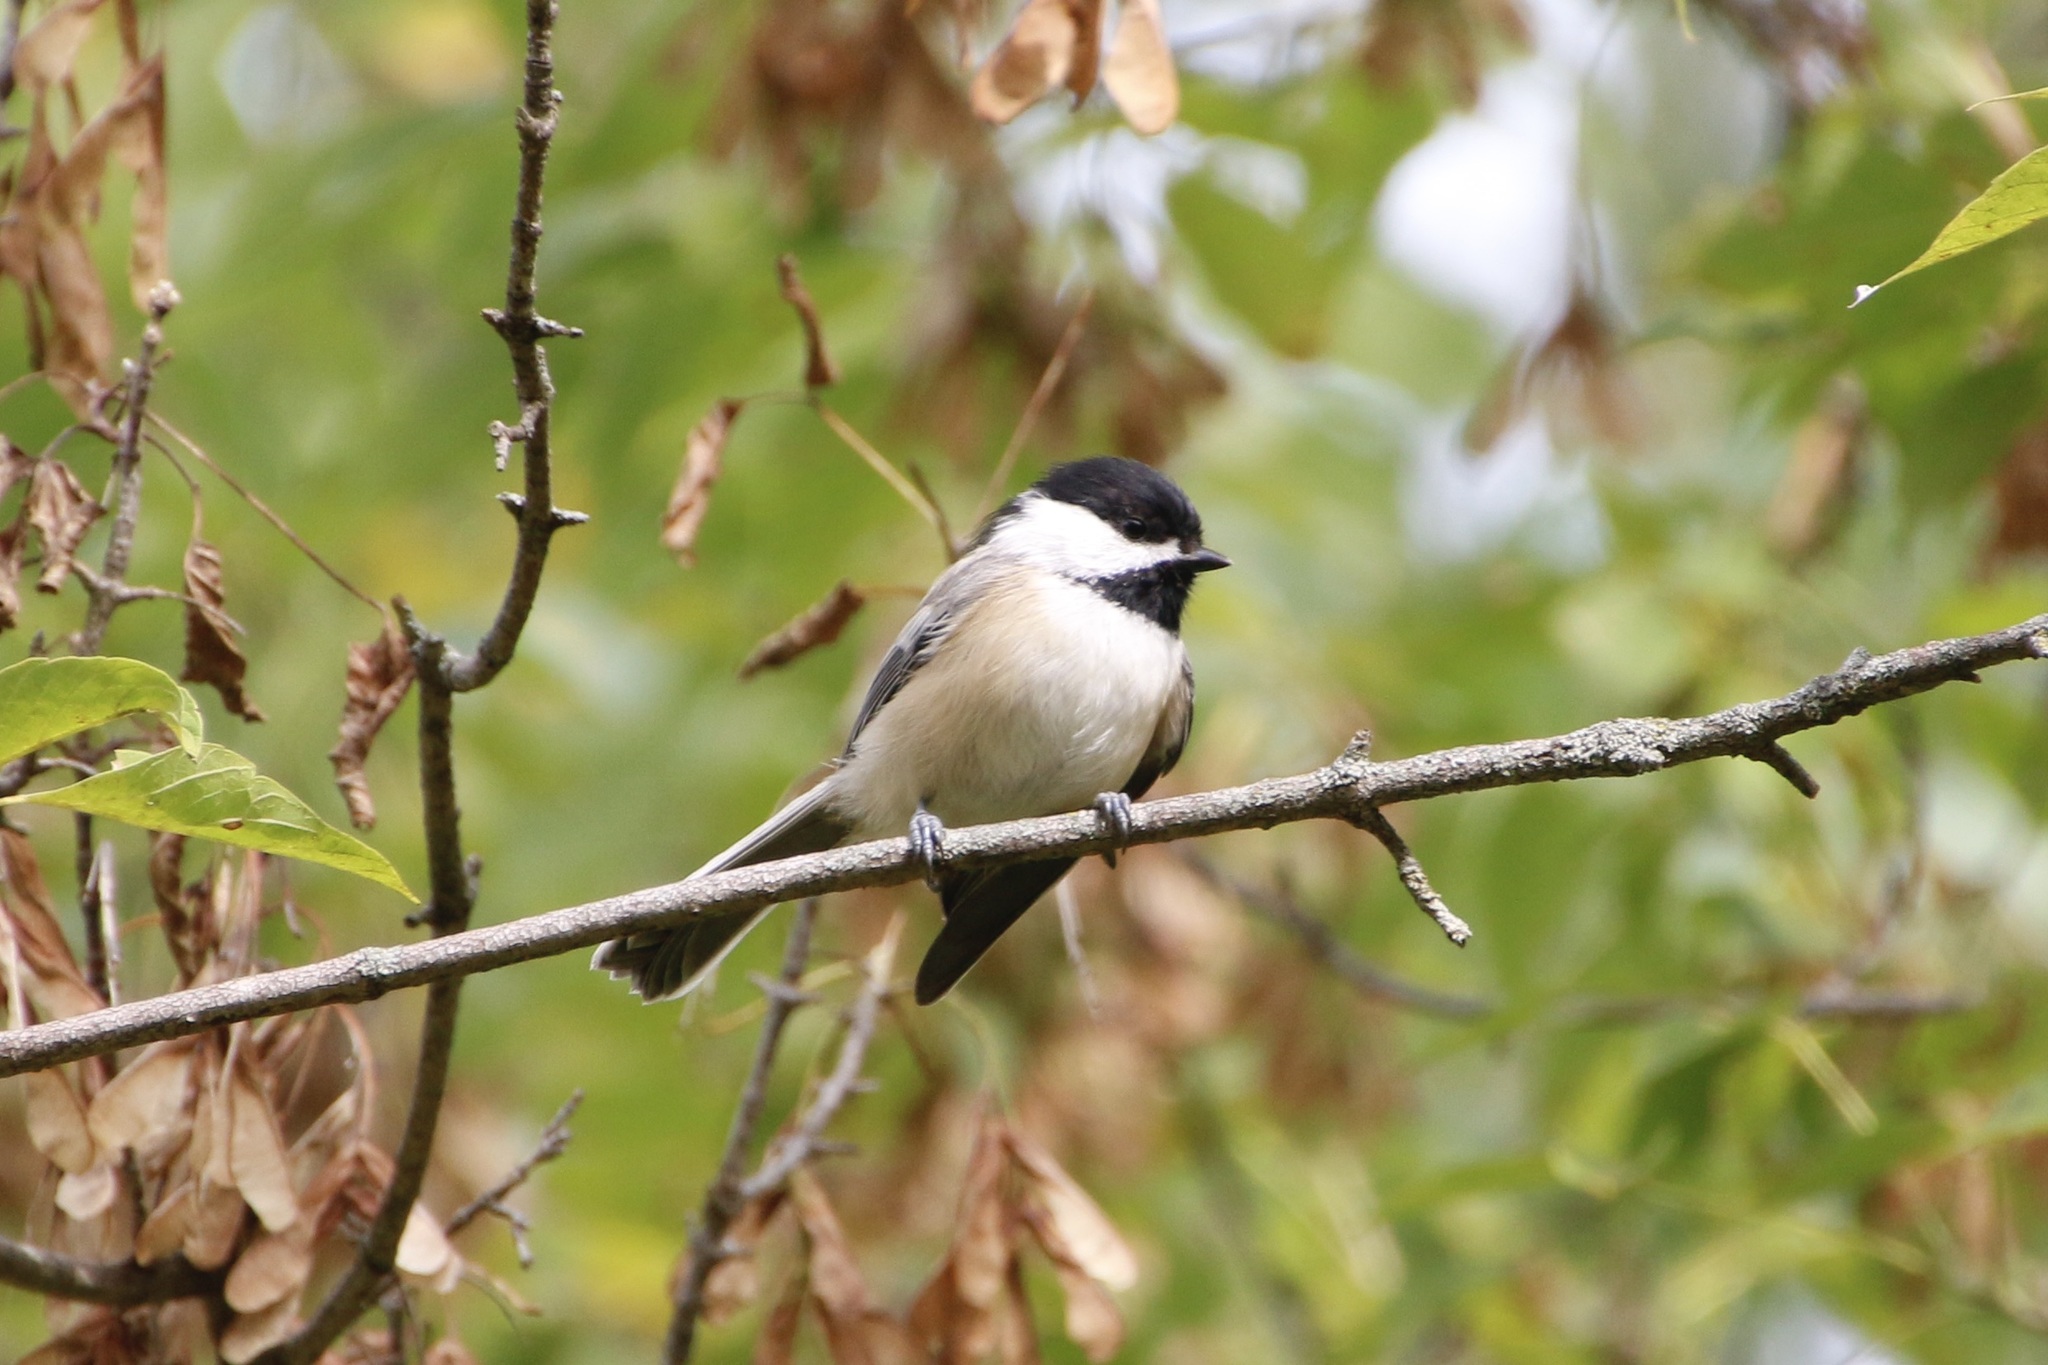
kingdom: Animalia
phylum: Chordata
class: Aves
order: Passeriformes
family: Paridae
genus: Poecile
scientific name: Poecile atricapillus
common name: Black-capped chickadee
